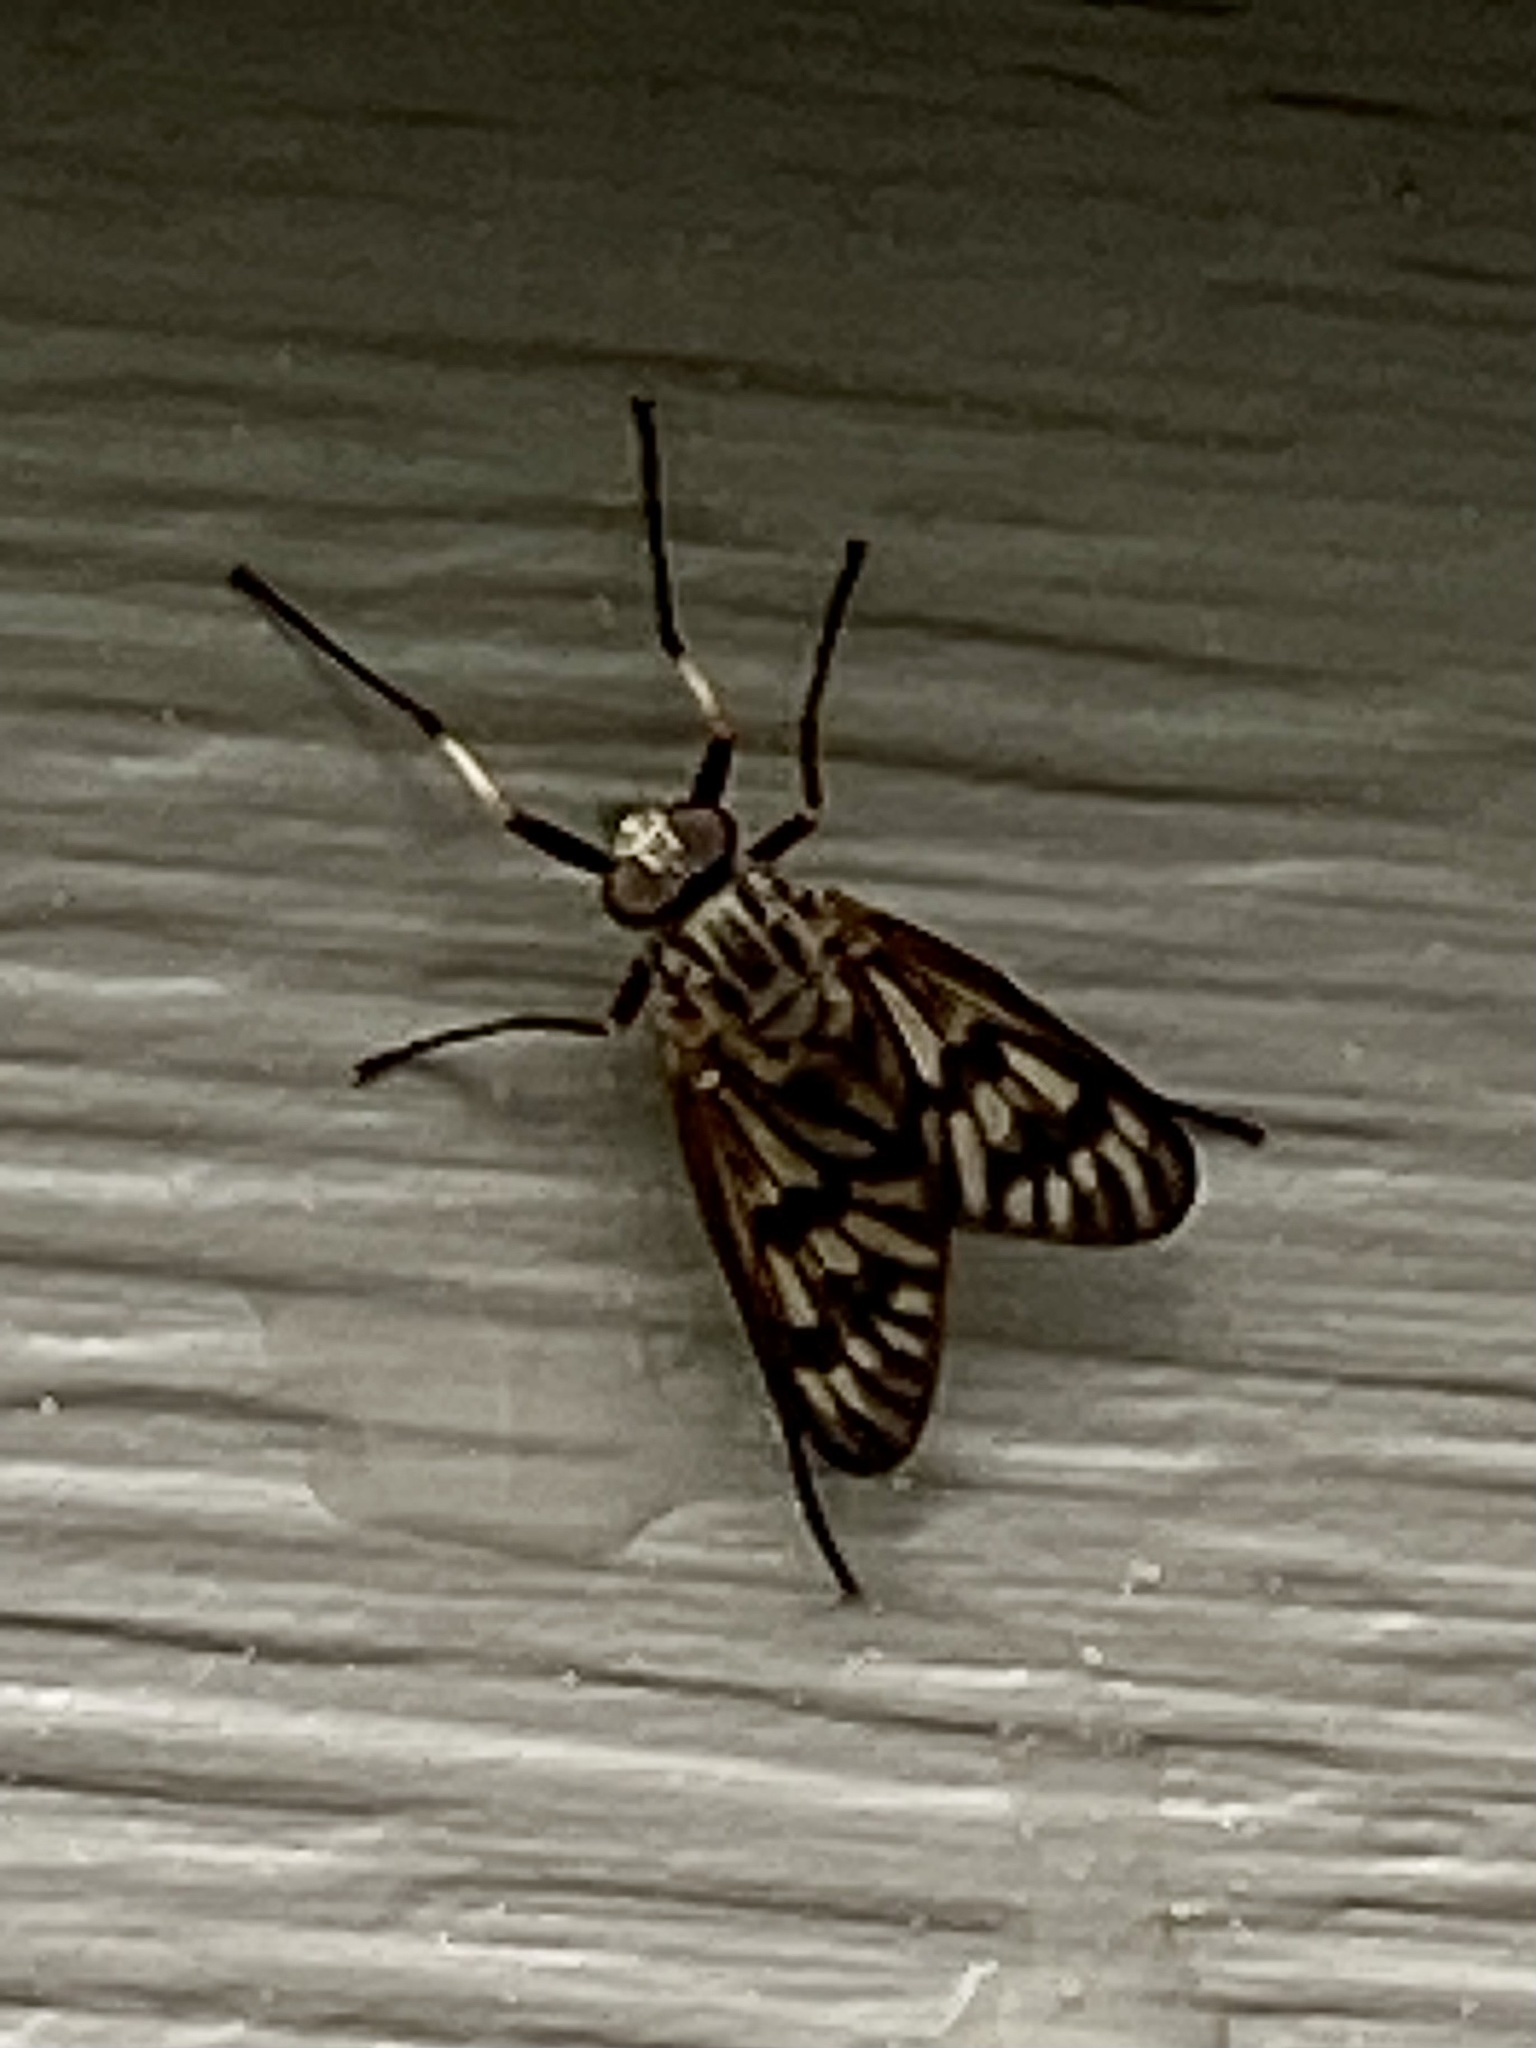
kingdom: Animalia
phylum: Arthropoda
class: Insecta
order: Diptera
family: Rhagionidae
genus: Rhagio
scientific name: Rhagio mystaceus
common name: Common snipe fly
